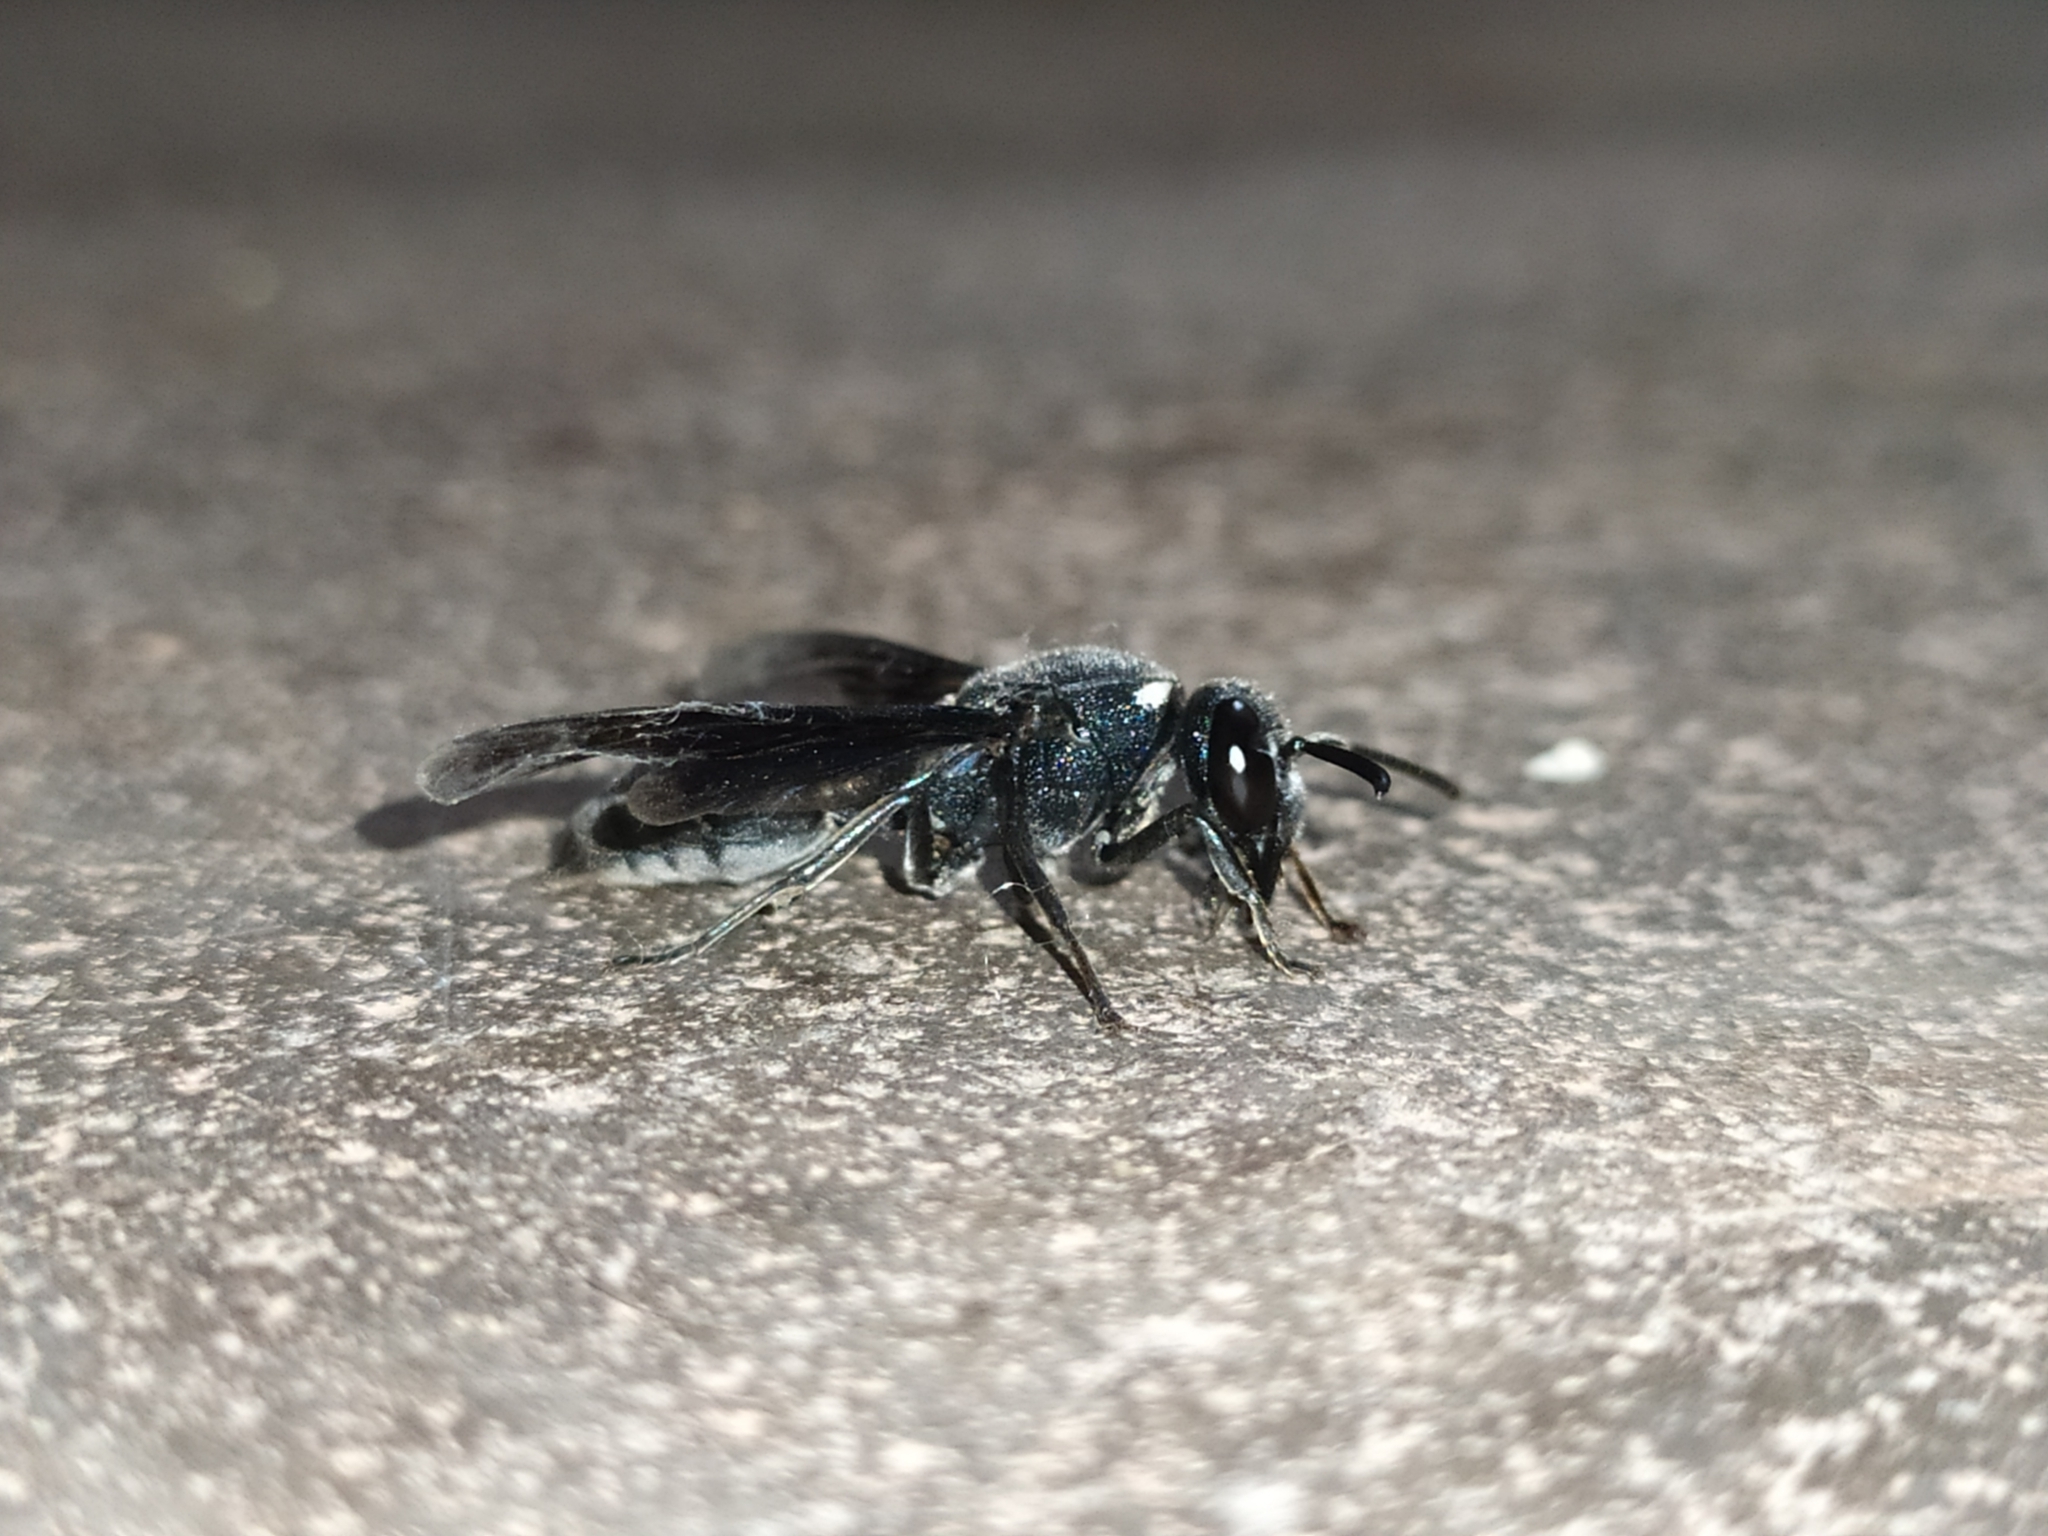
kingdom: Animalia
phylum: Arthropoda
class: Insecta
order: Hymenoptera
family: Eumenidae
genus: Anterhynchium
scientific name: Anterhynchium flavomarginatum
